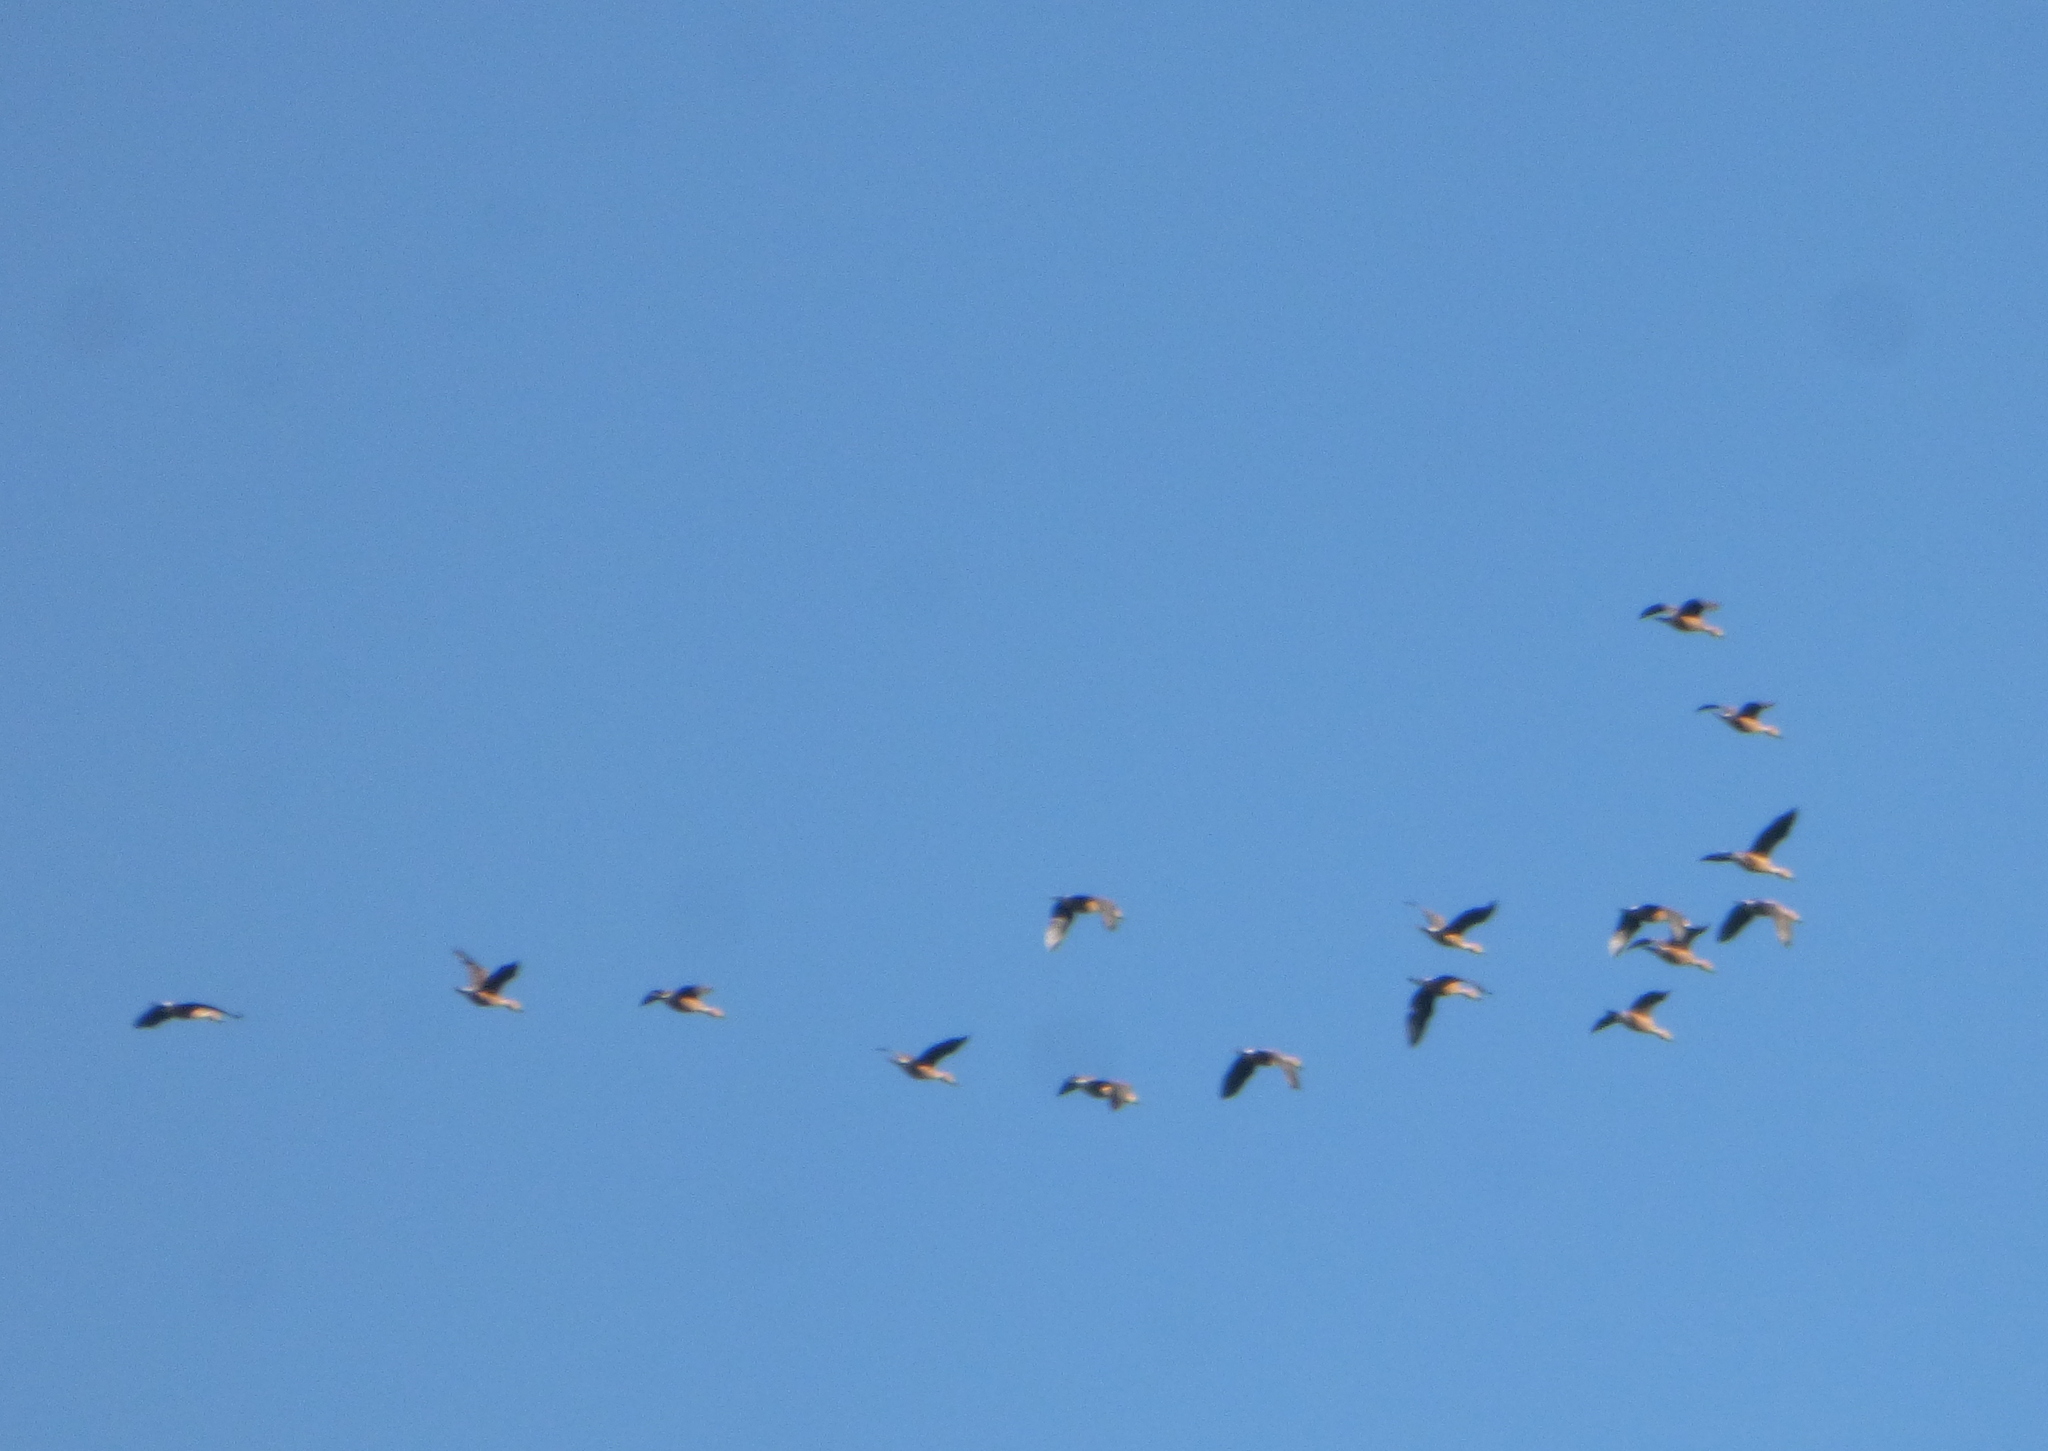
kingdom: Animalia
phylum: Chordata
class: Aves
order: Anseriformes
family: Anatidae
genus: Dendrocygna
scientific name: Dendrocygna bicolor
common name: Fulvous whistling duck
